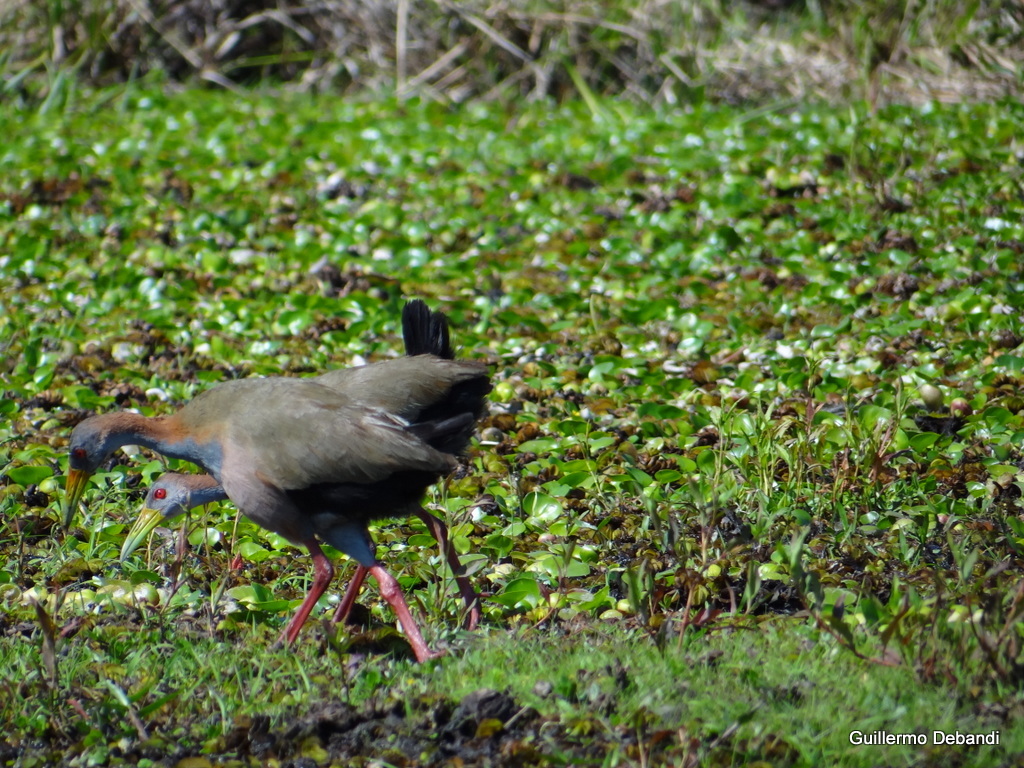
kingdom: Animalia
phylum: Chordata
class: Aves
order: Gruiformes
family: Rallidae
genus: Aramides
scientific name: Aramides ypecaha
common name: Giant wood rail
